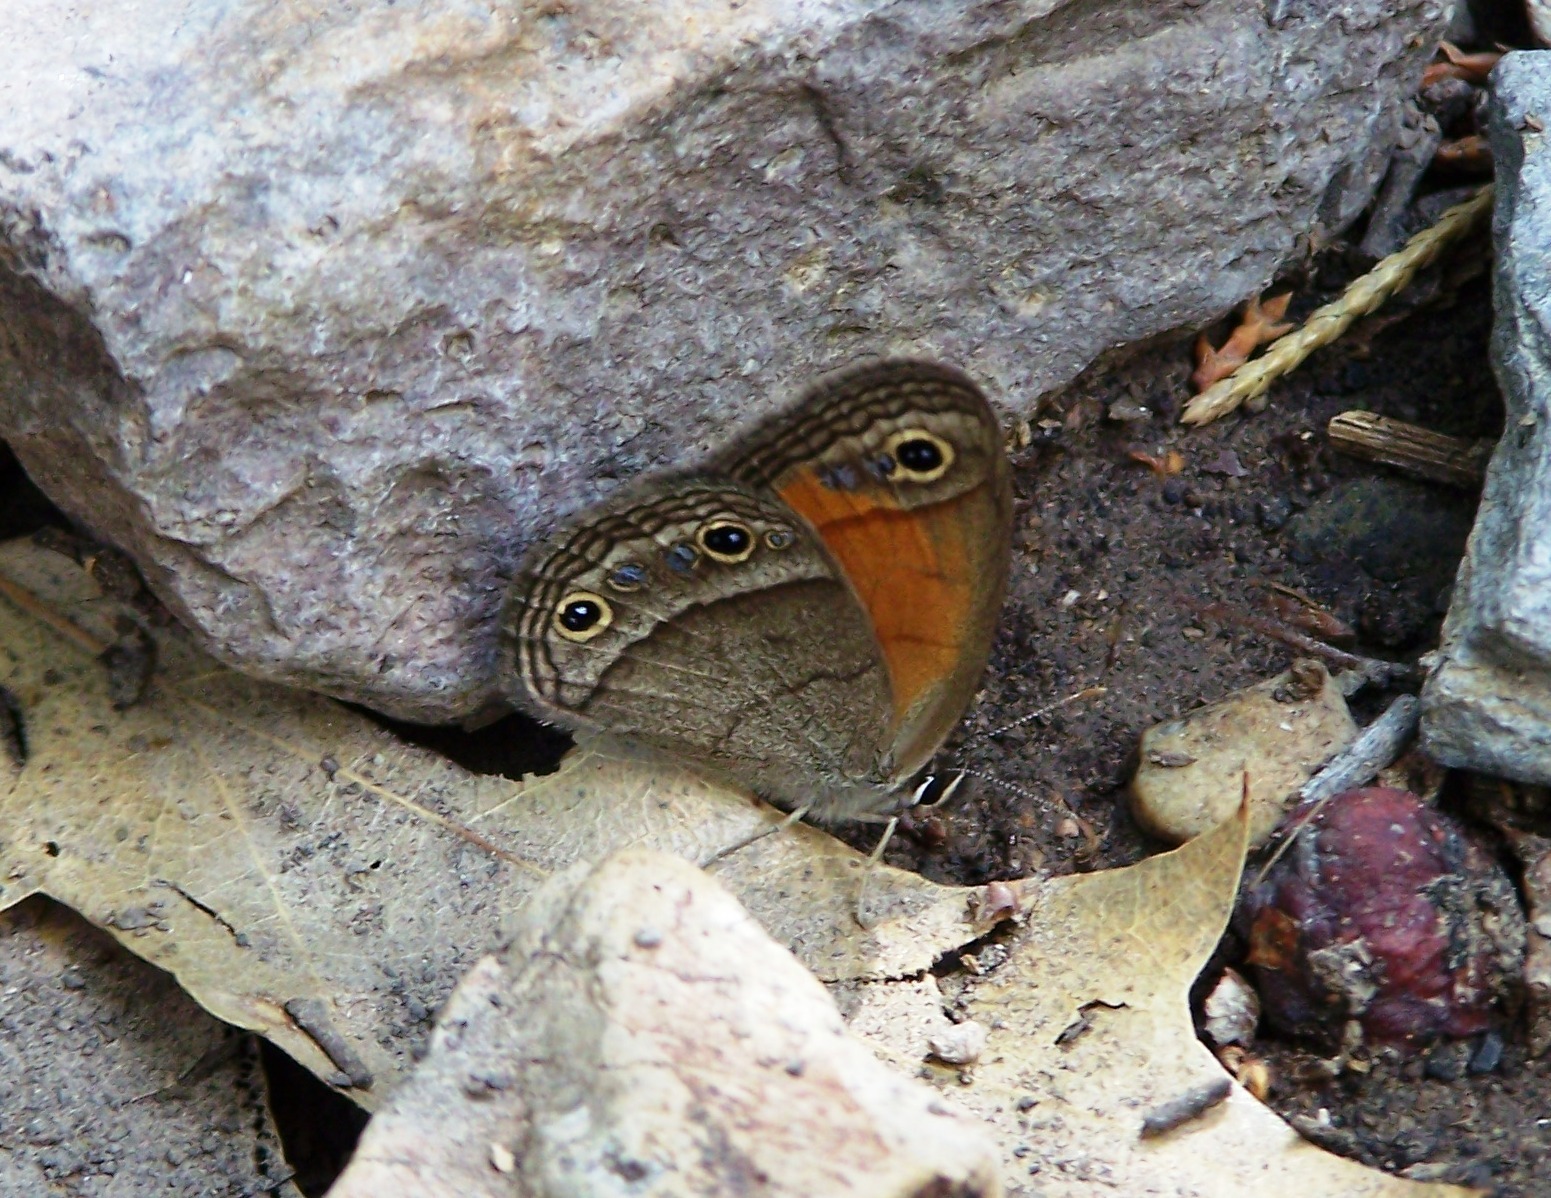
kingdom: Animalia
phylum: Arthropoda
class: Insecta
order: Lepidoptera
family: Nymphalidae
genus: Euptychia
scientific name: Euptychia Cissia rubricata
